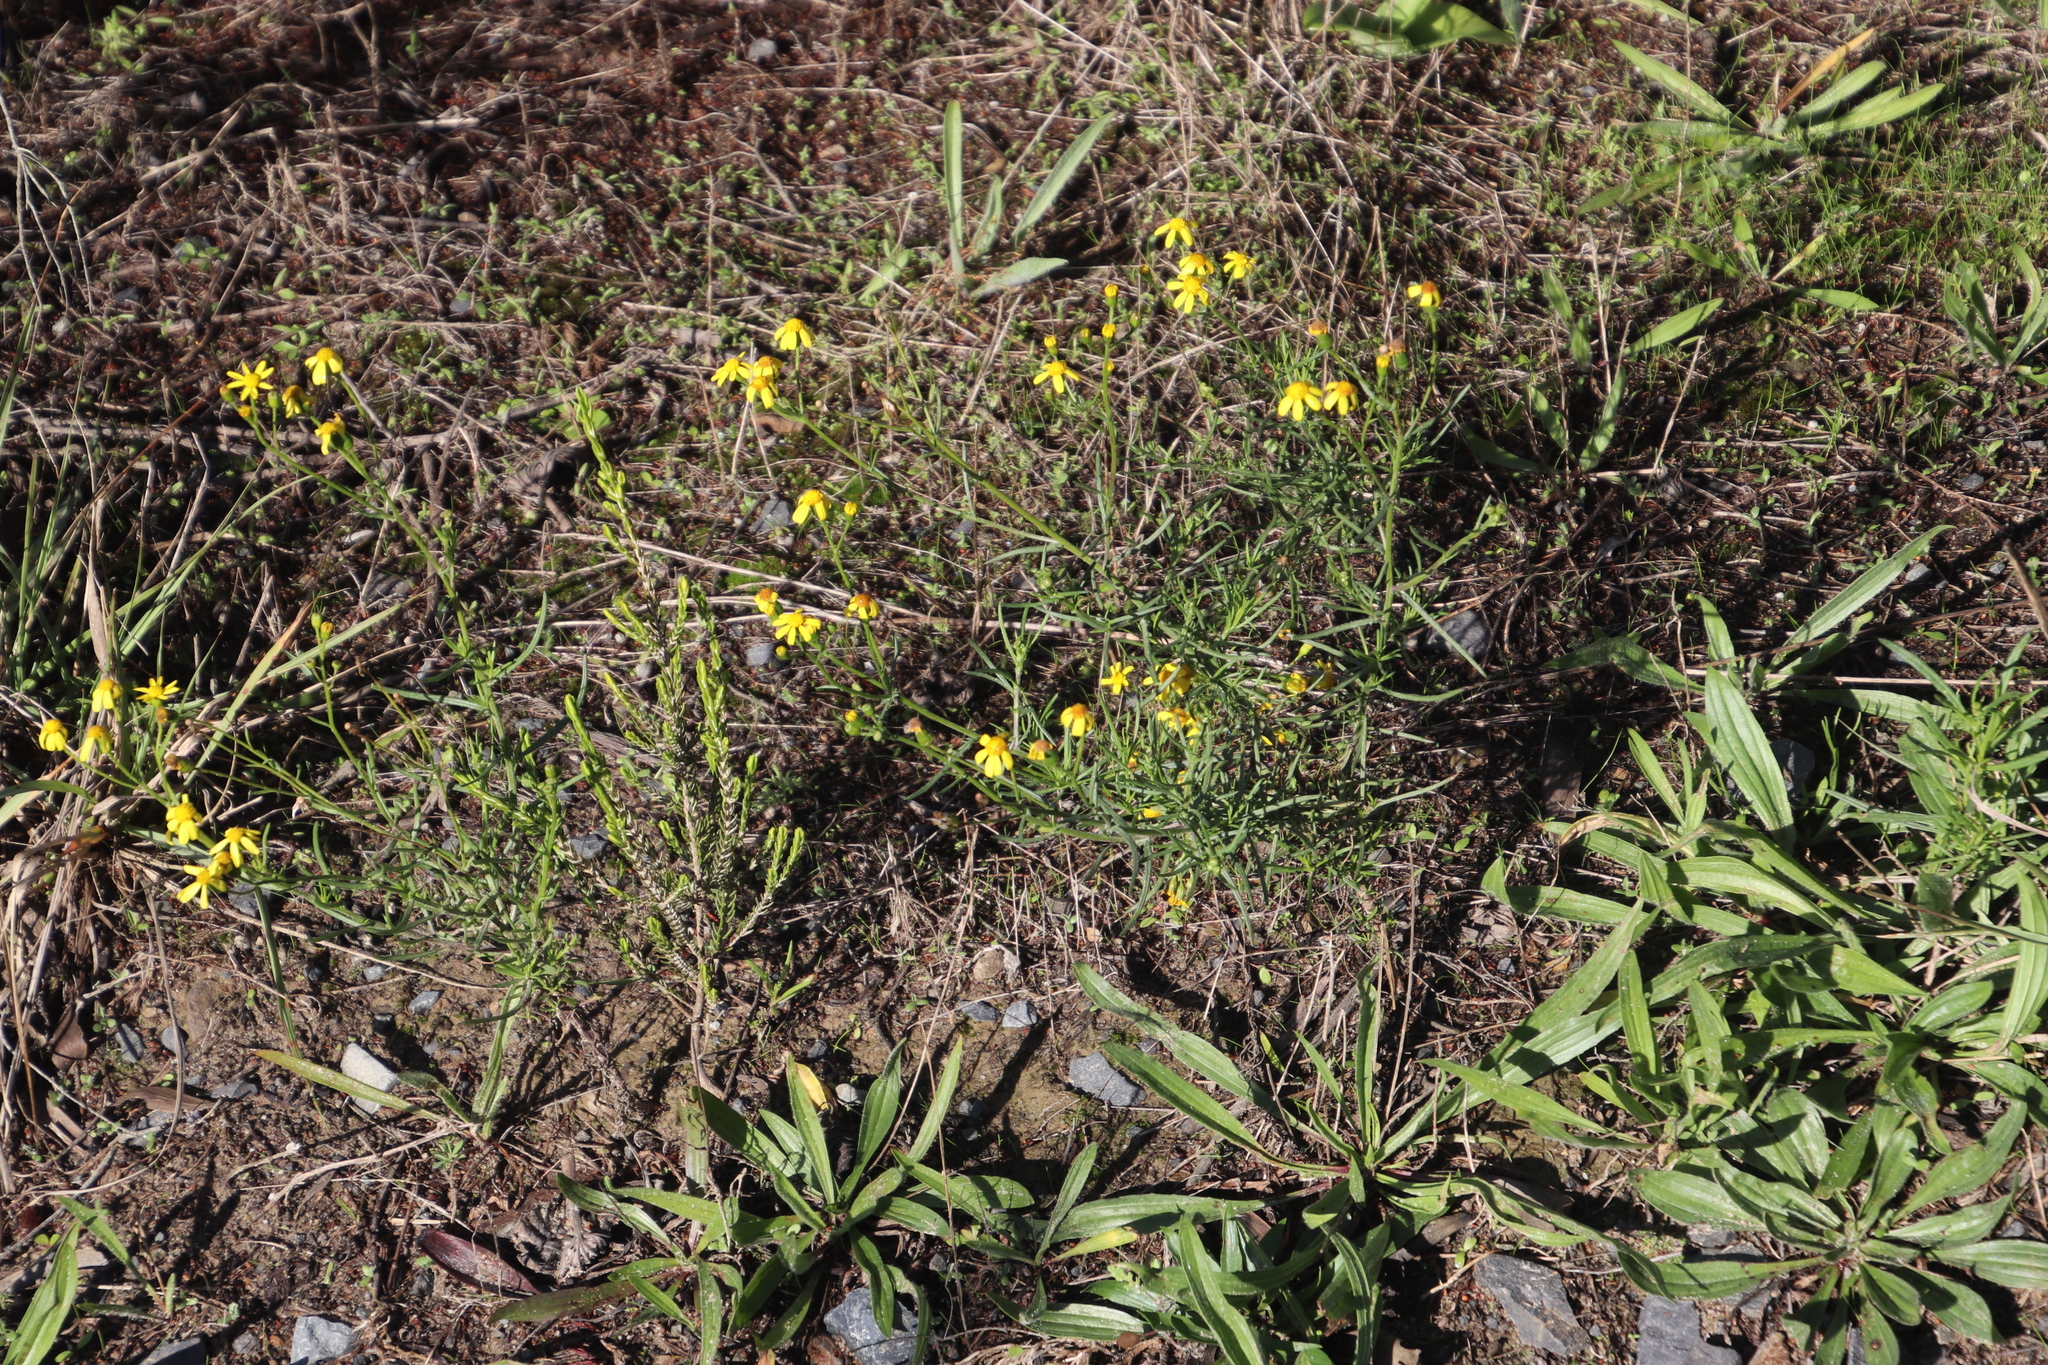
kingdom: Plantae
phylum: Tracheophyta
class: Magnoliopsida
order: Asterales
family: Asteraceae
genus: Senecio
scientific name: Senecio burchellii
